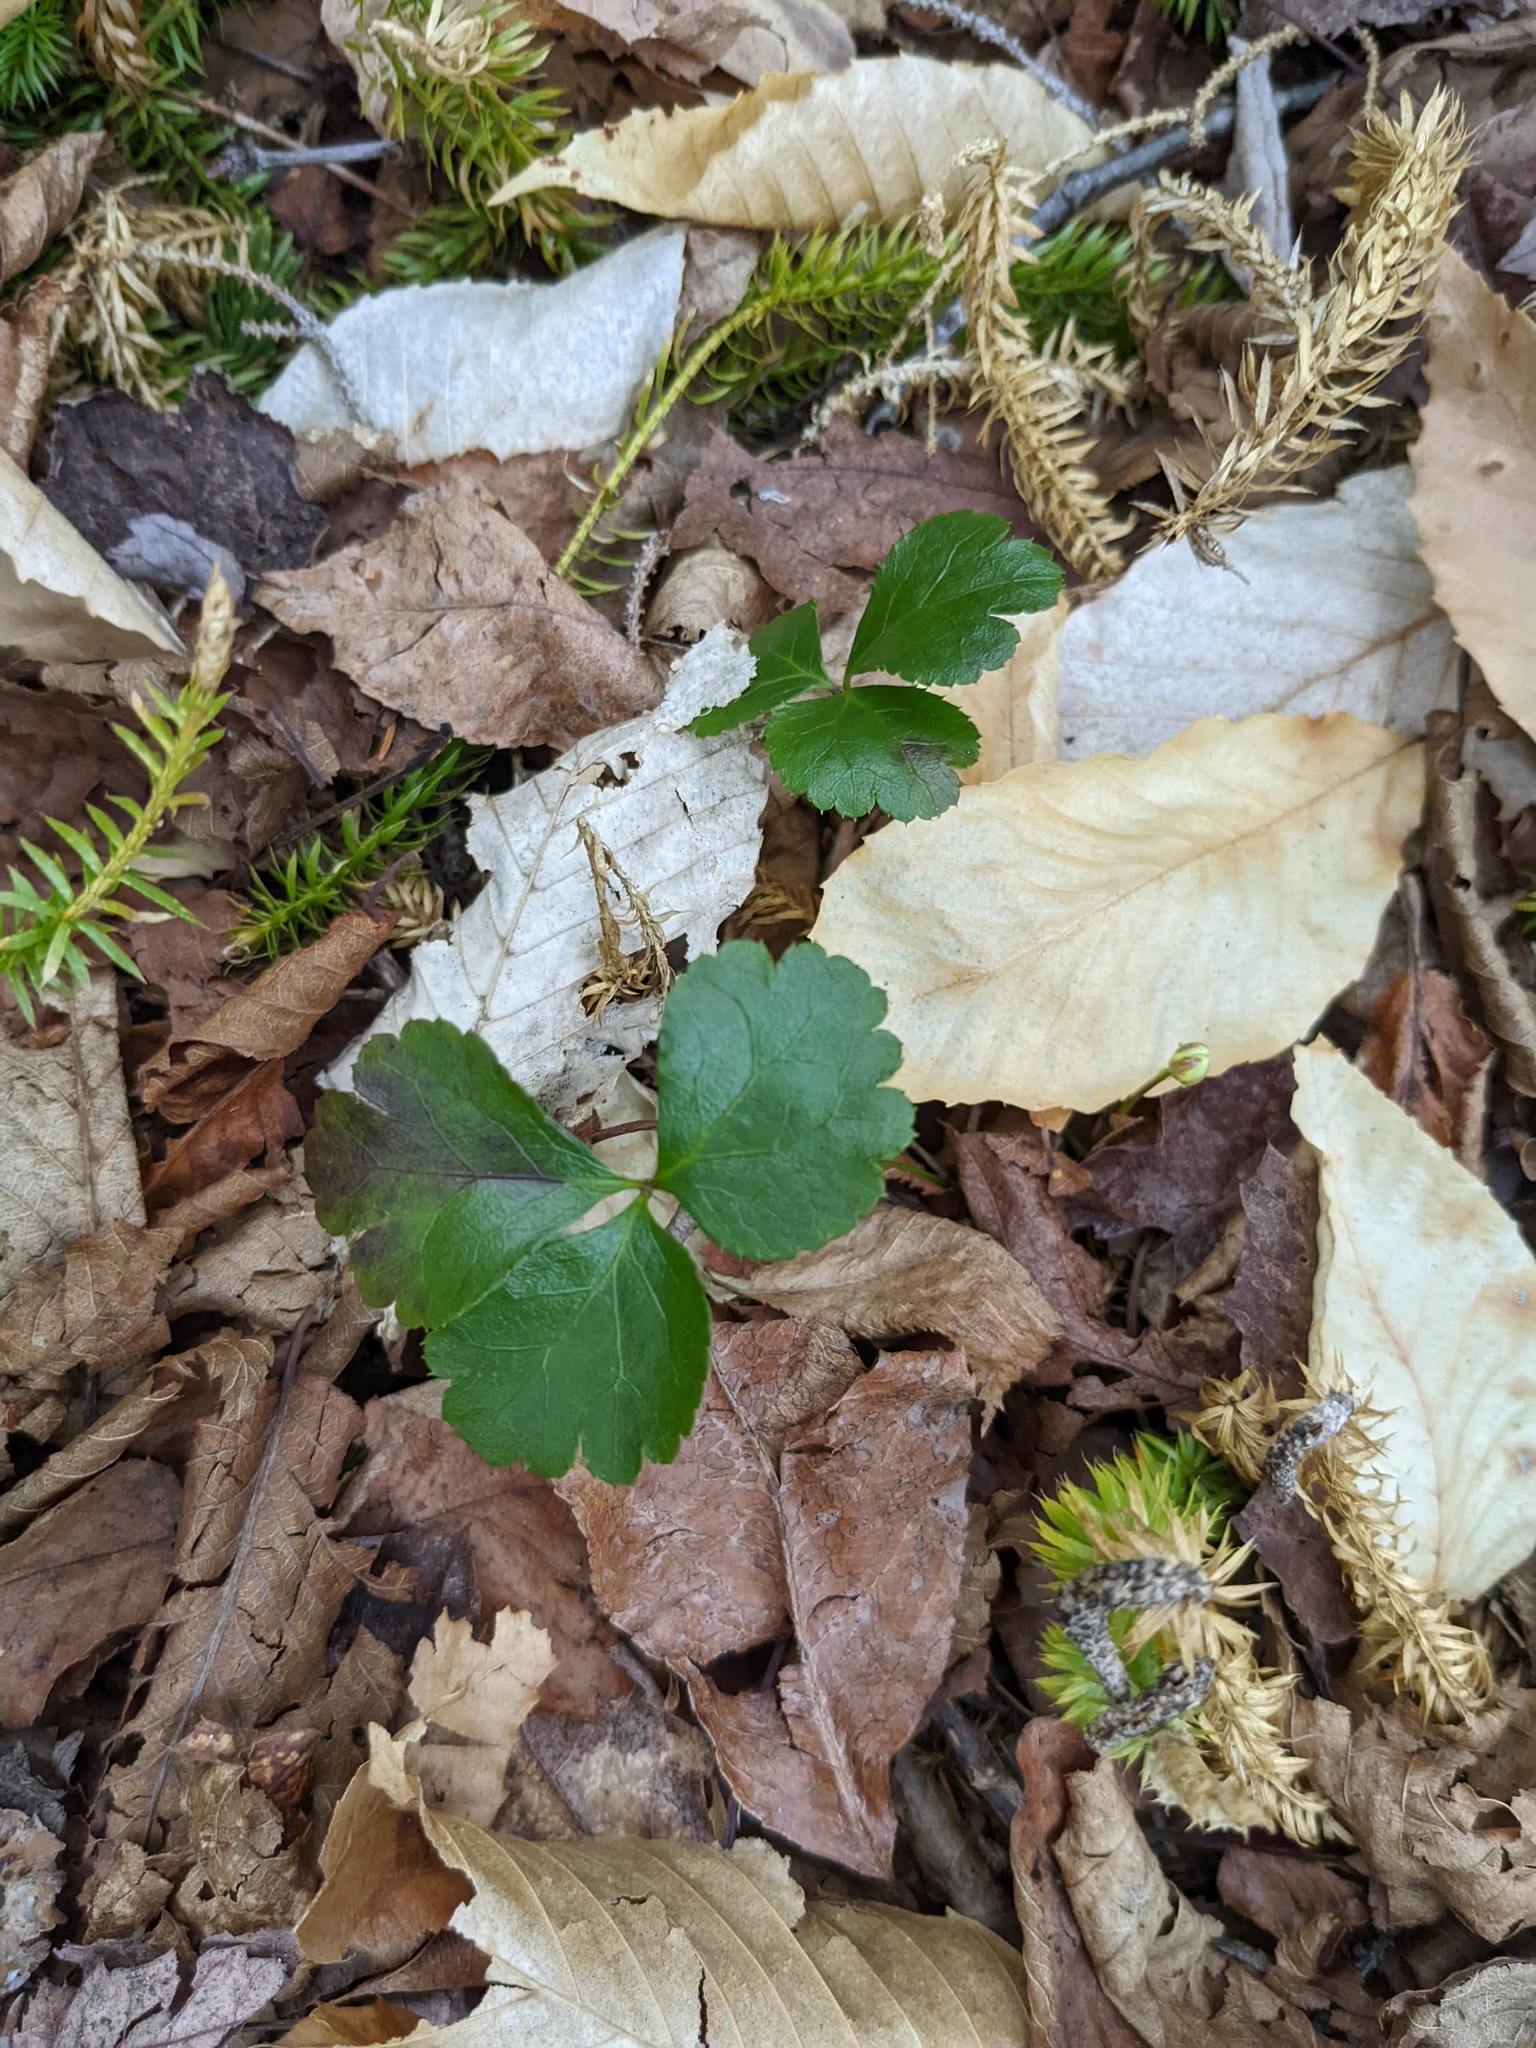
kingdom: Plantae
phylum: Tracheophyta
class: Magnoliopsida
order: Ranunculales
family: Ranunculaceae
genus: Coptis
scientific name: Coptis trifolia
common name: Canker-root
